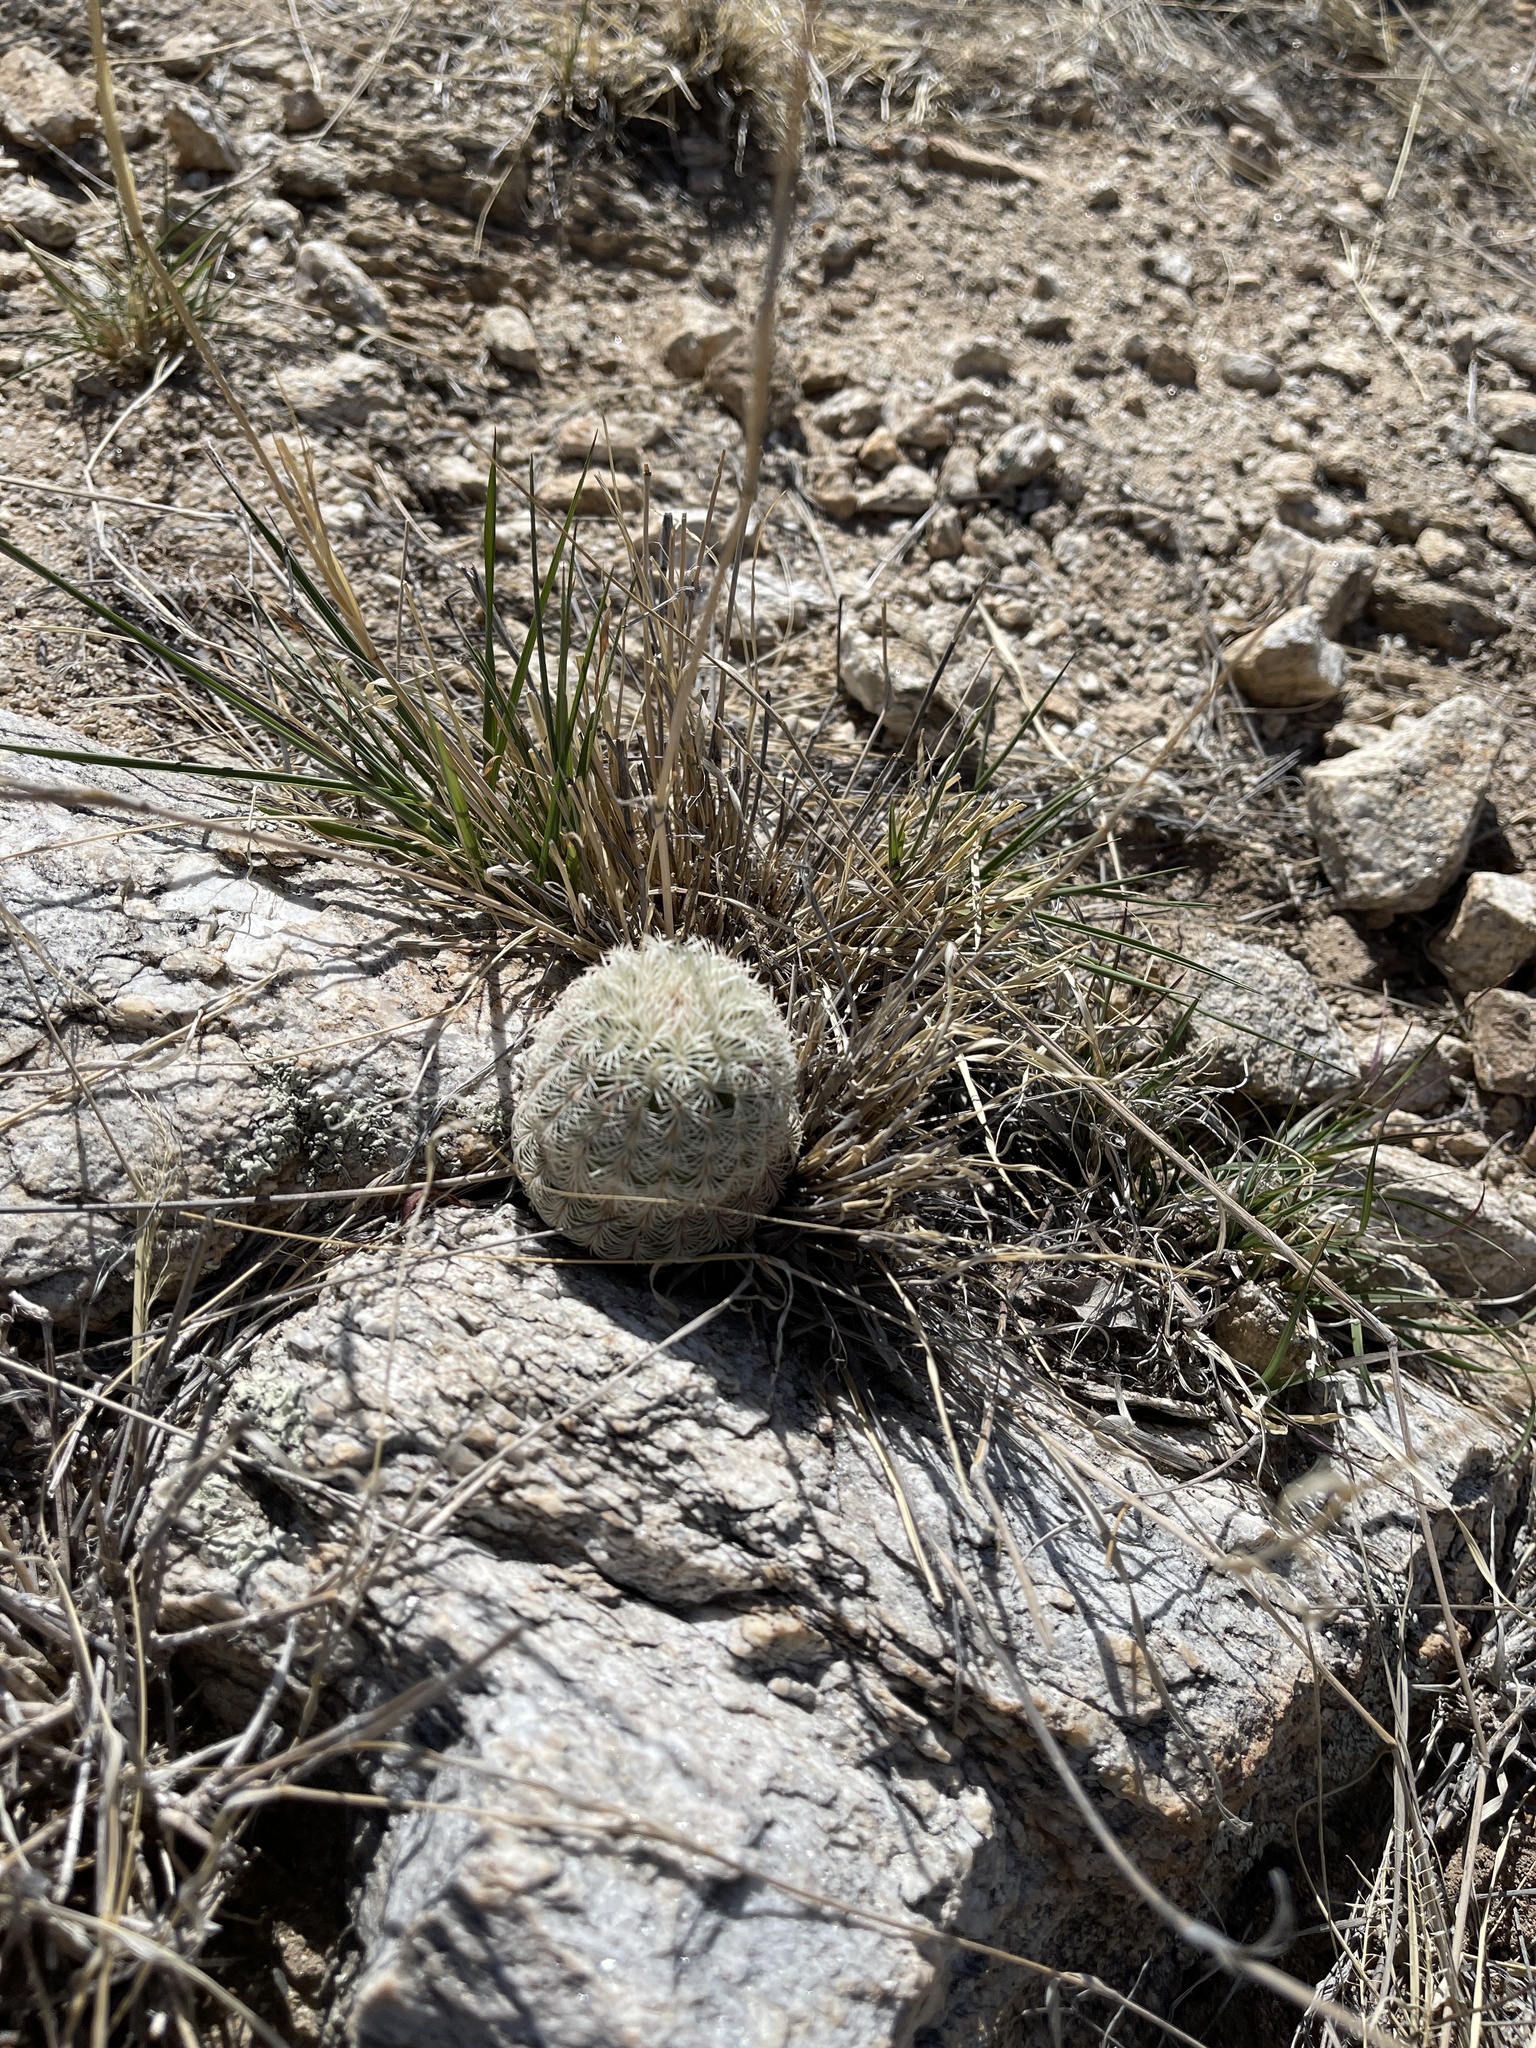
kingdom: Plantae
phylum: Tracheophyta
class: Magnoliopsida
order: Caryophyllales
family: Cactaceae
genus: Echinocereus
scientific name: Echinocereus rigidissimus
